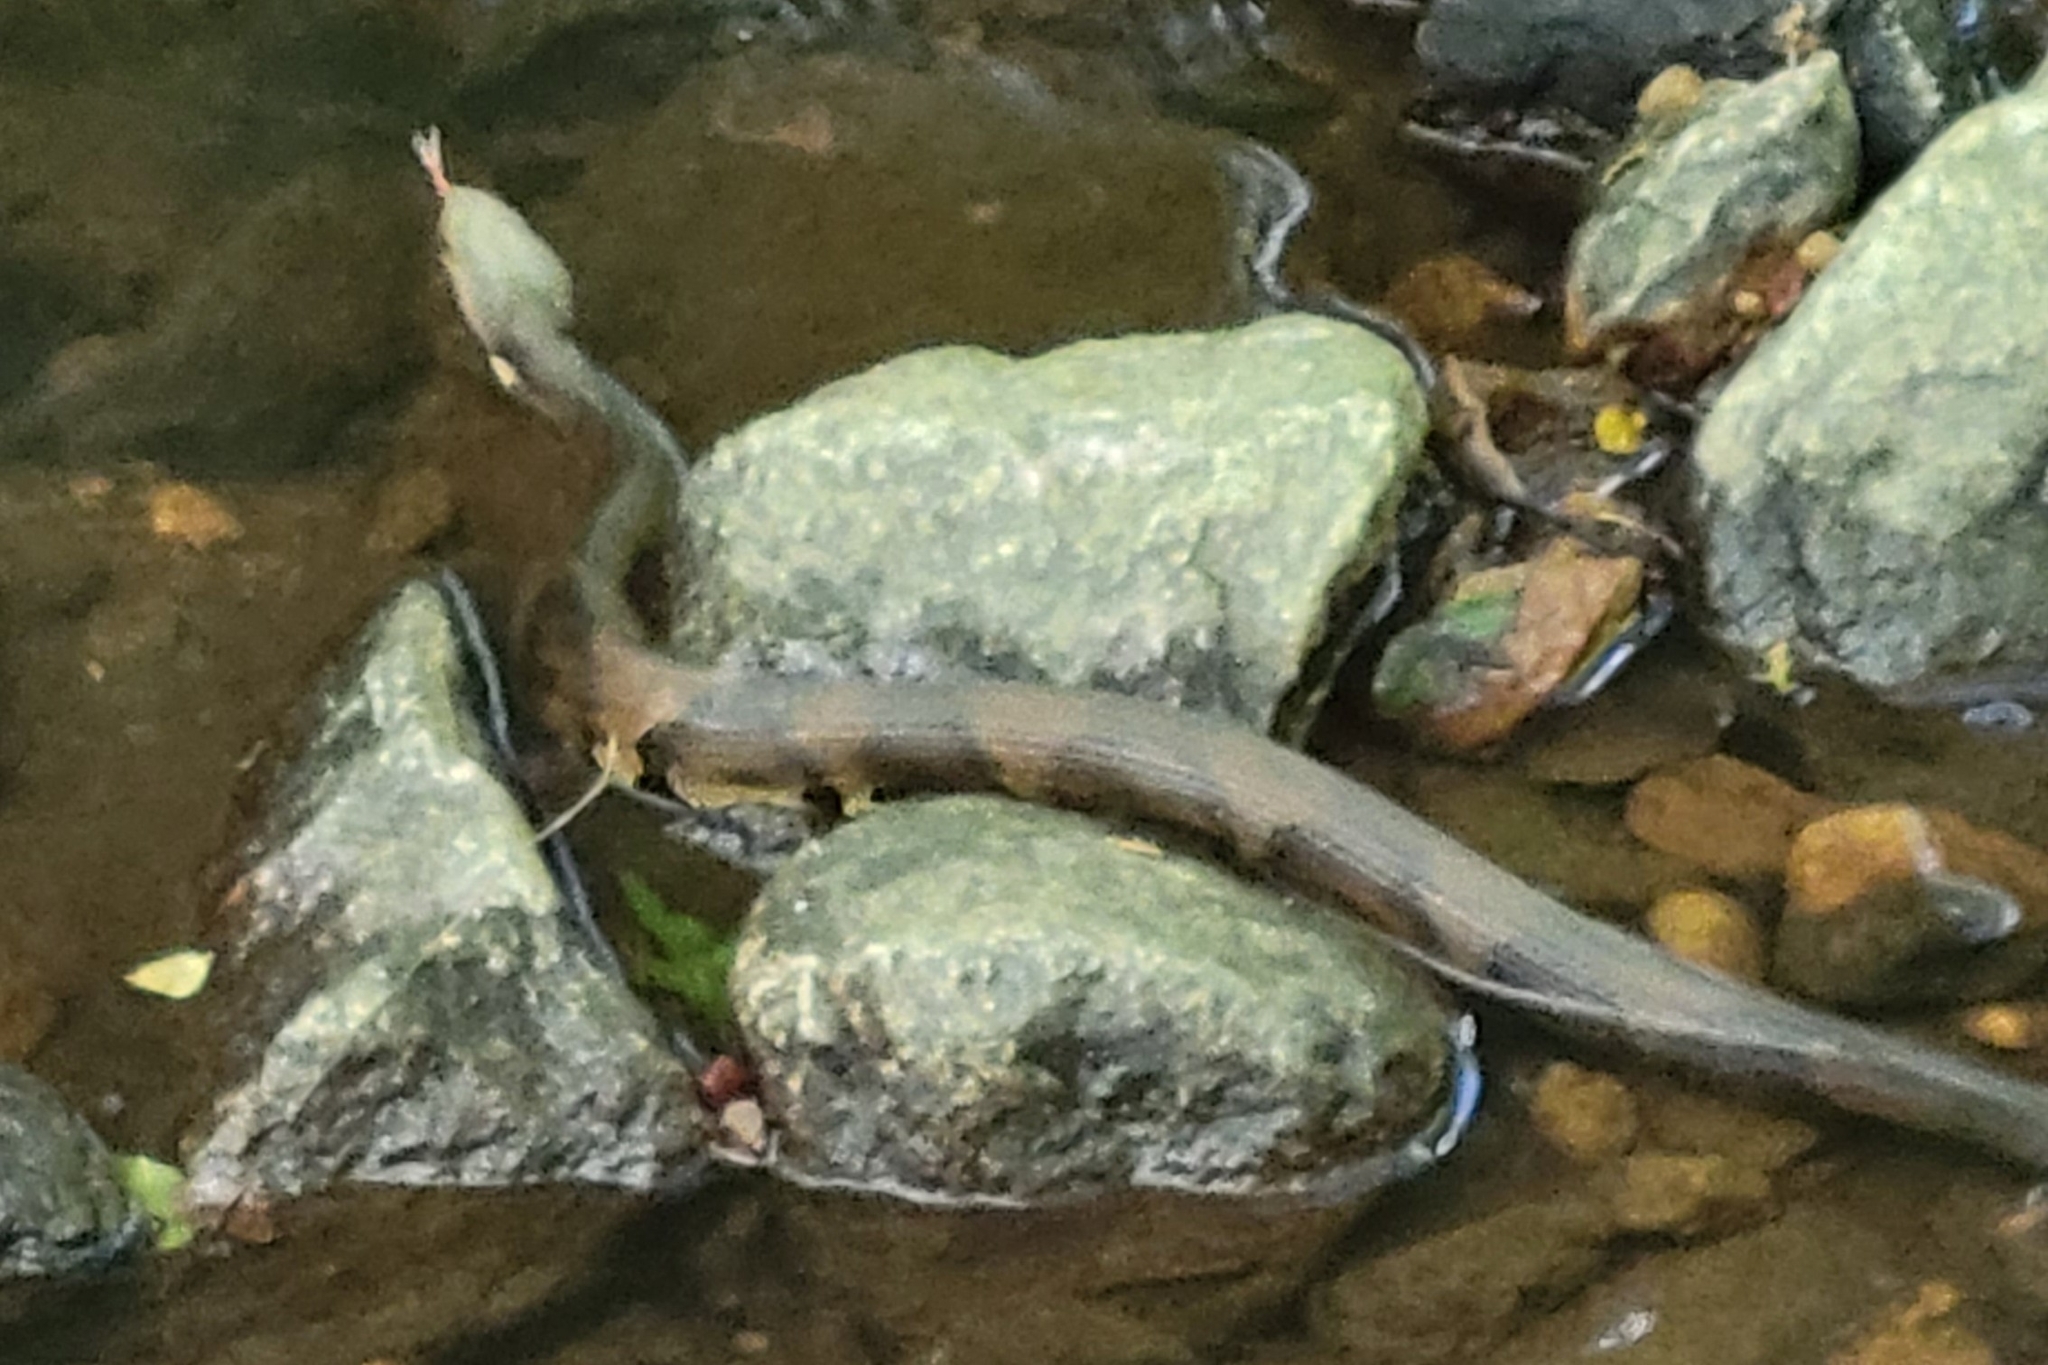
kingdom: Animalia
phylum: Chordata
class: Squamata
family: Viperidae
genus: Agkistrodon
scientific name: Agkistrodon piscivorus
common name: Cottonmouth
